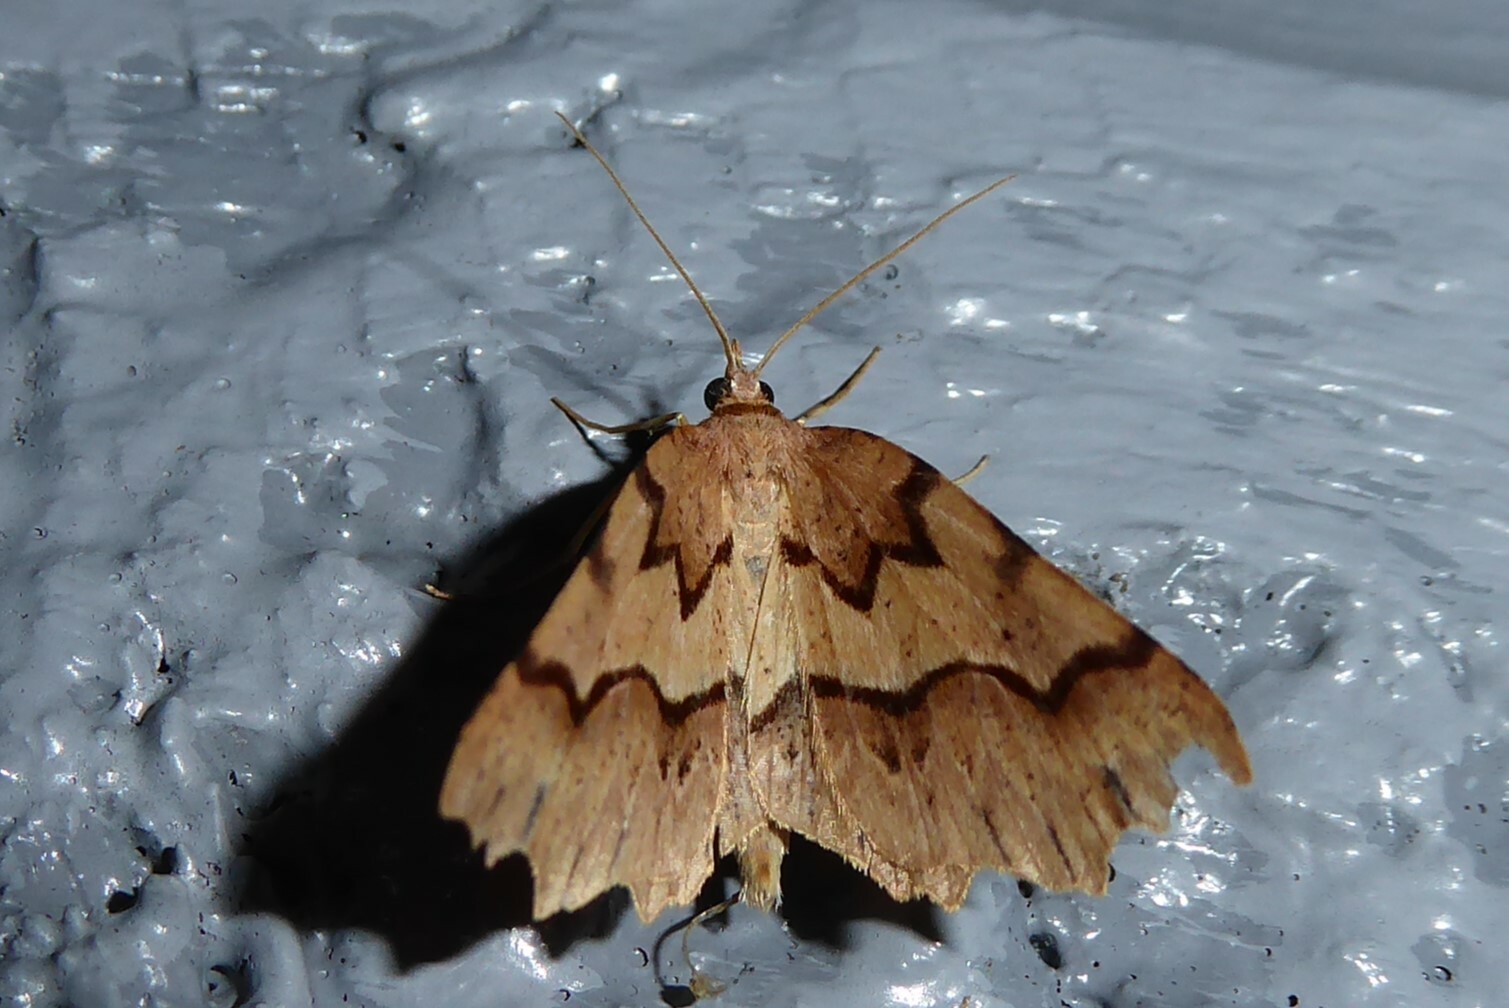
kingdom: Animalia
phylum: Arthropoda
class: Insecta
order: Lepidoptera
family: Geometridae
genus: Ischalis
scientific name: Ischalis fortinata
